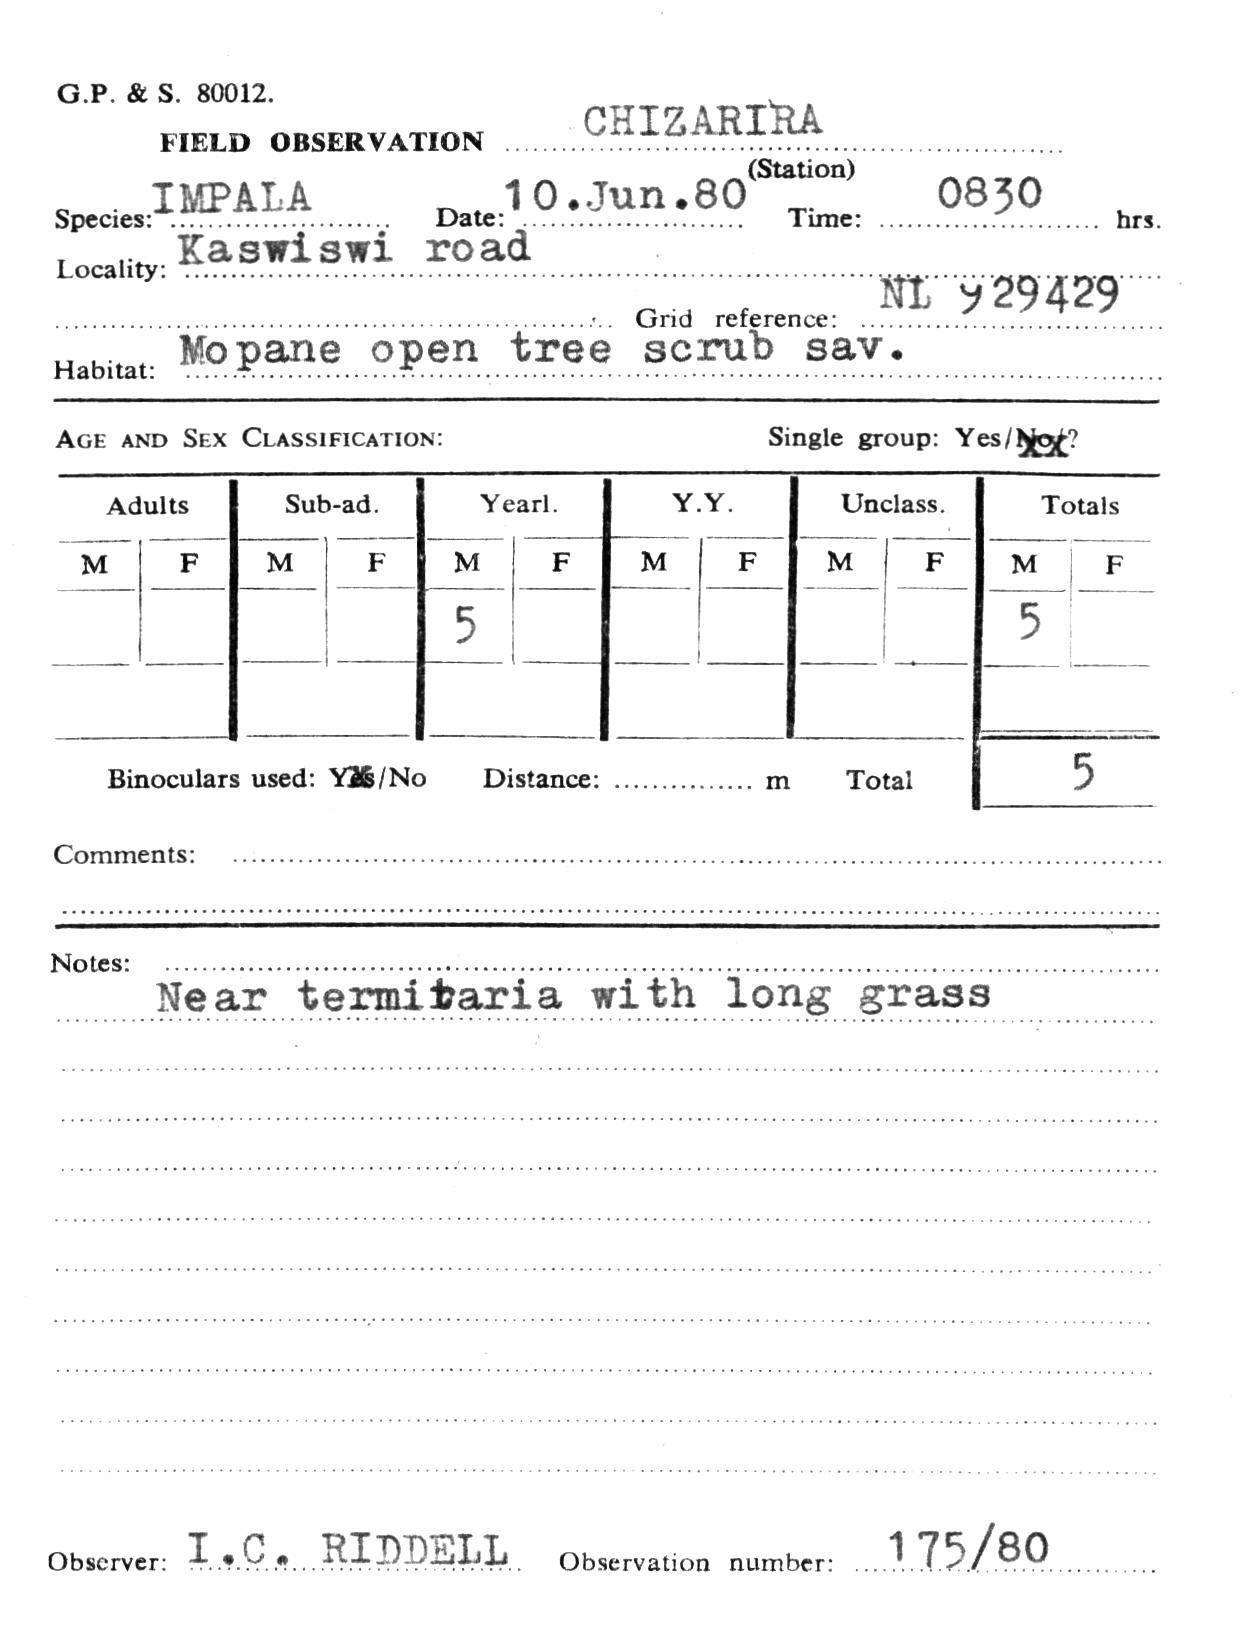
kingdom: Animalia
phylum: Chordata
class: Mammalia
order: Artiodactyla
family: Bovidae
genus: Aepyceros
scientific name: Aepyceros melampus
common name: Impala
